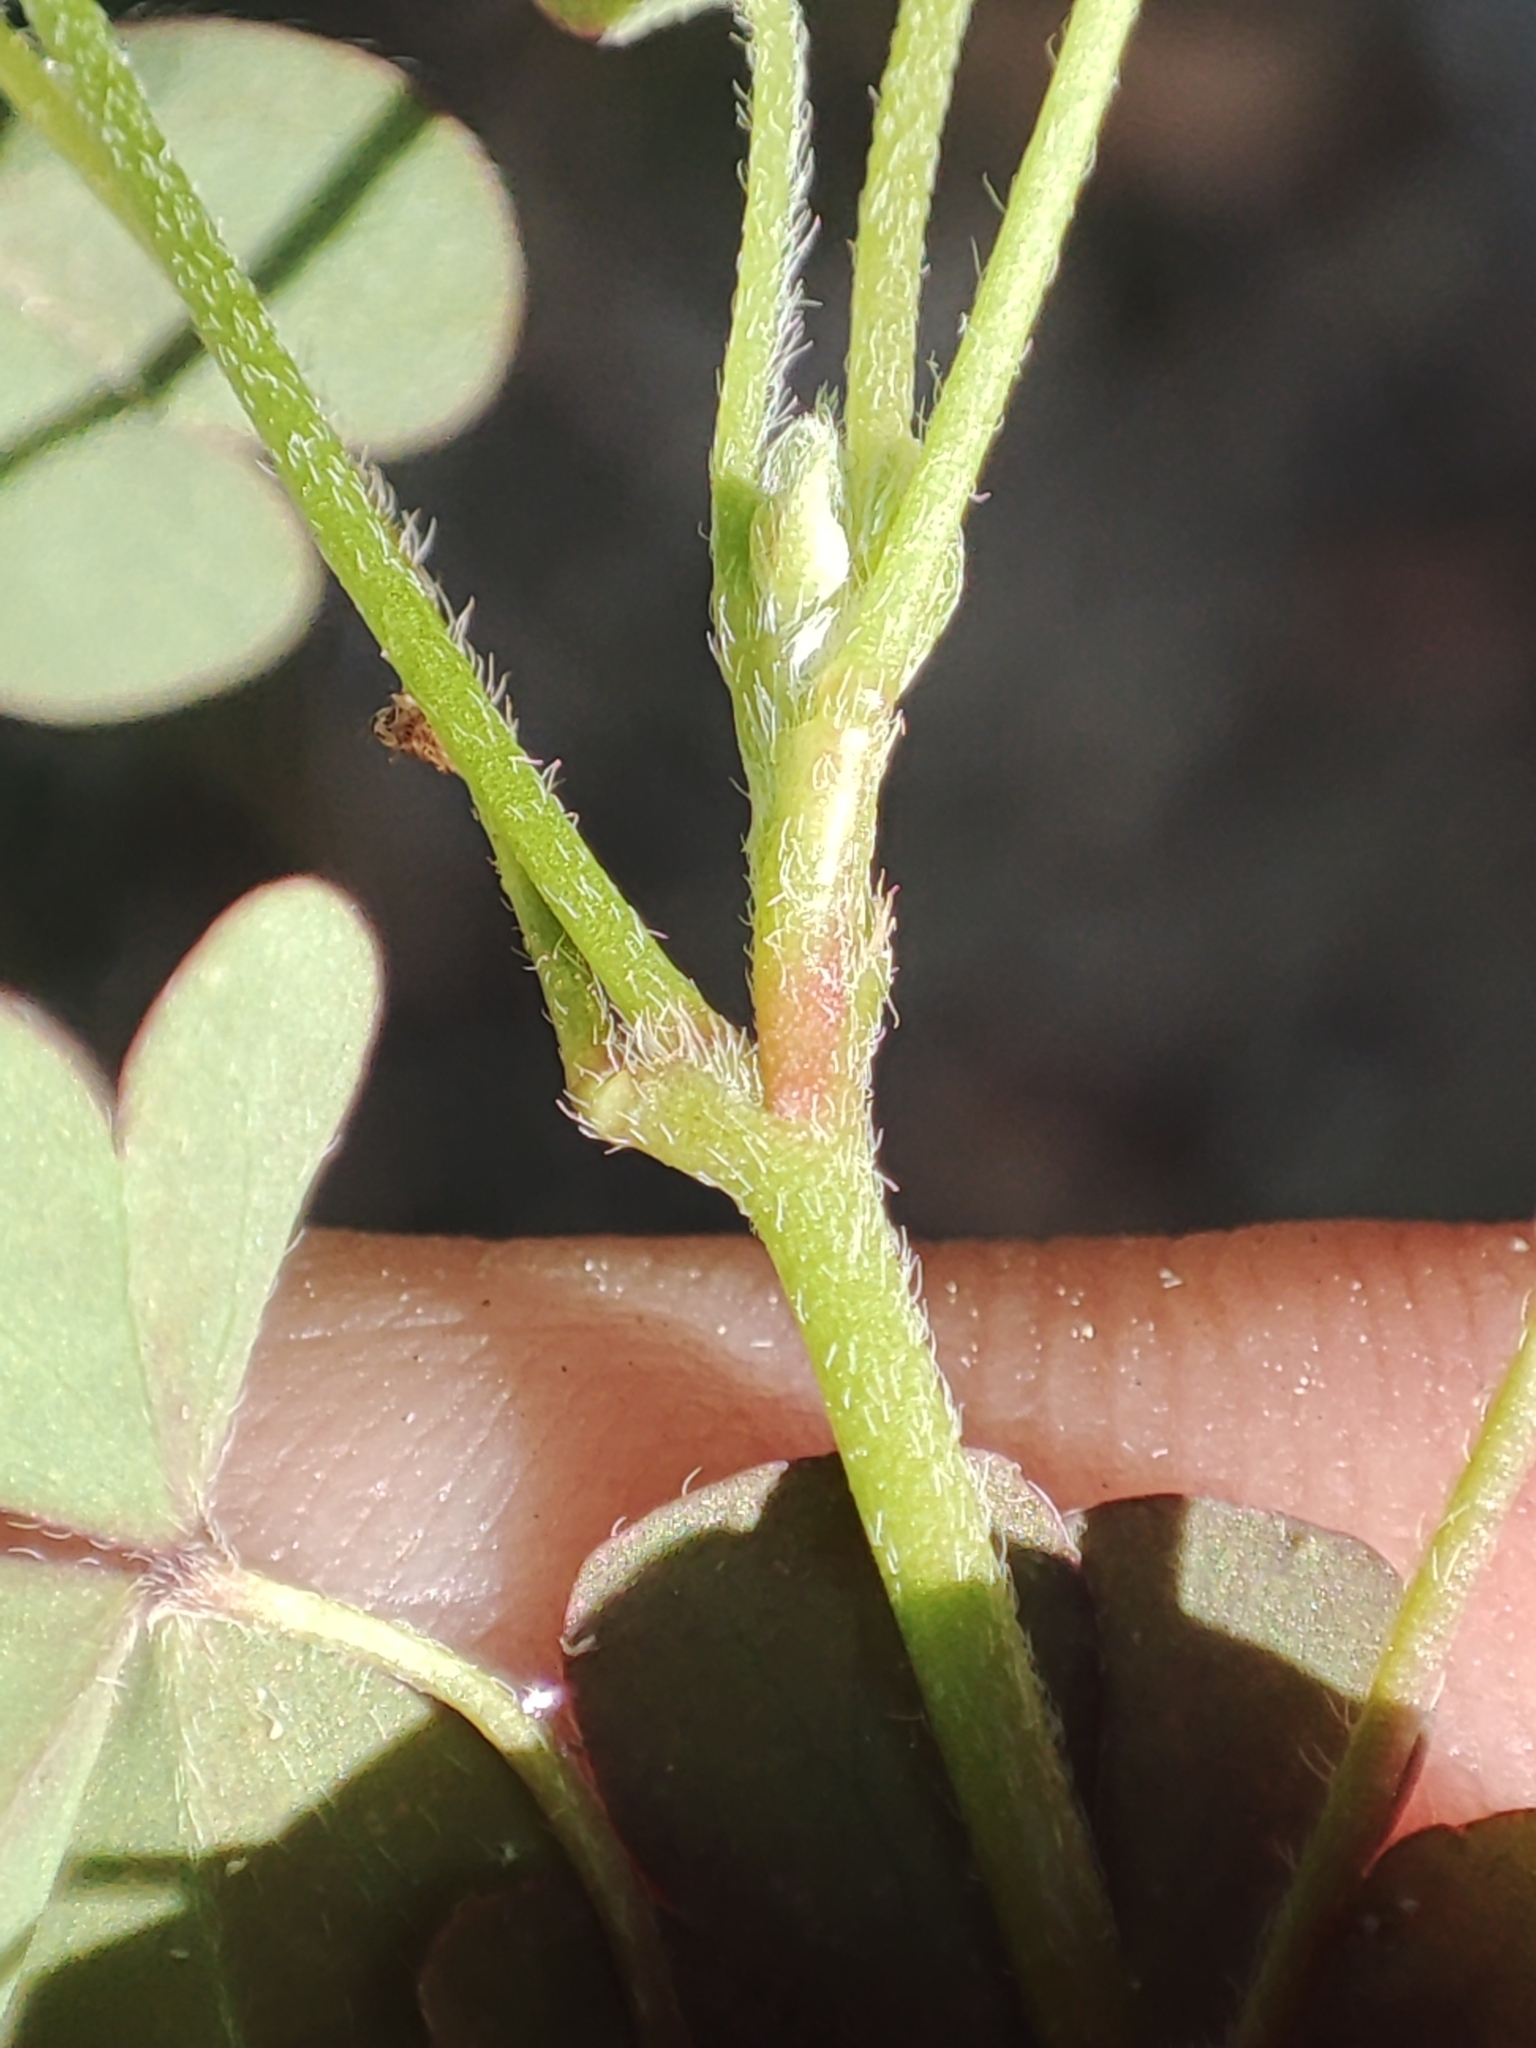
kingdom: Plantae
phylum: Tracheophyta
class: Magnoliopsida
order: Oxalidales
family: Oxalidaceae
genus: Oxalis
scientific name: Oxalis corniculata
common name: Procumbent yellow-sorrel
